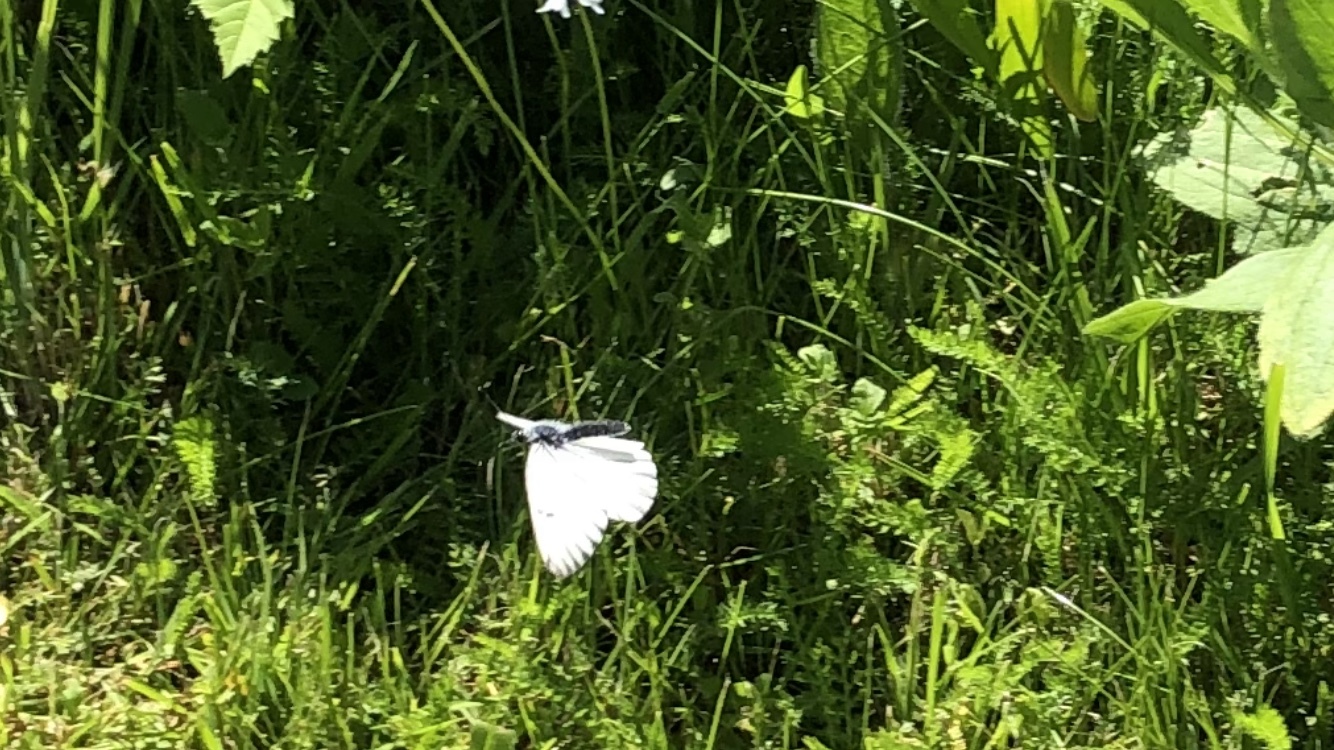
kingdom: Animalia
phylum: Arthropoda
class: Insecta
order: Lepidoptera
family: Pieridae
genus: Aporia
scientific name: Aporia crataegi
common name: Black-veined white
